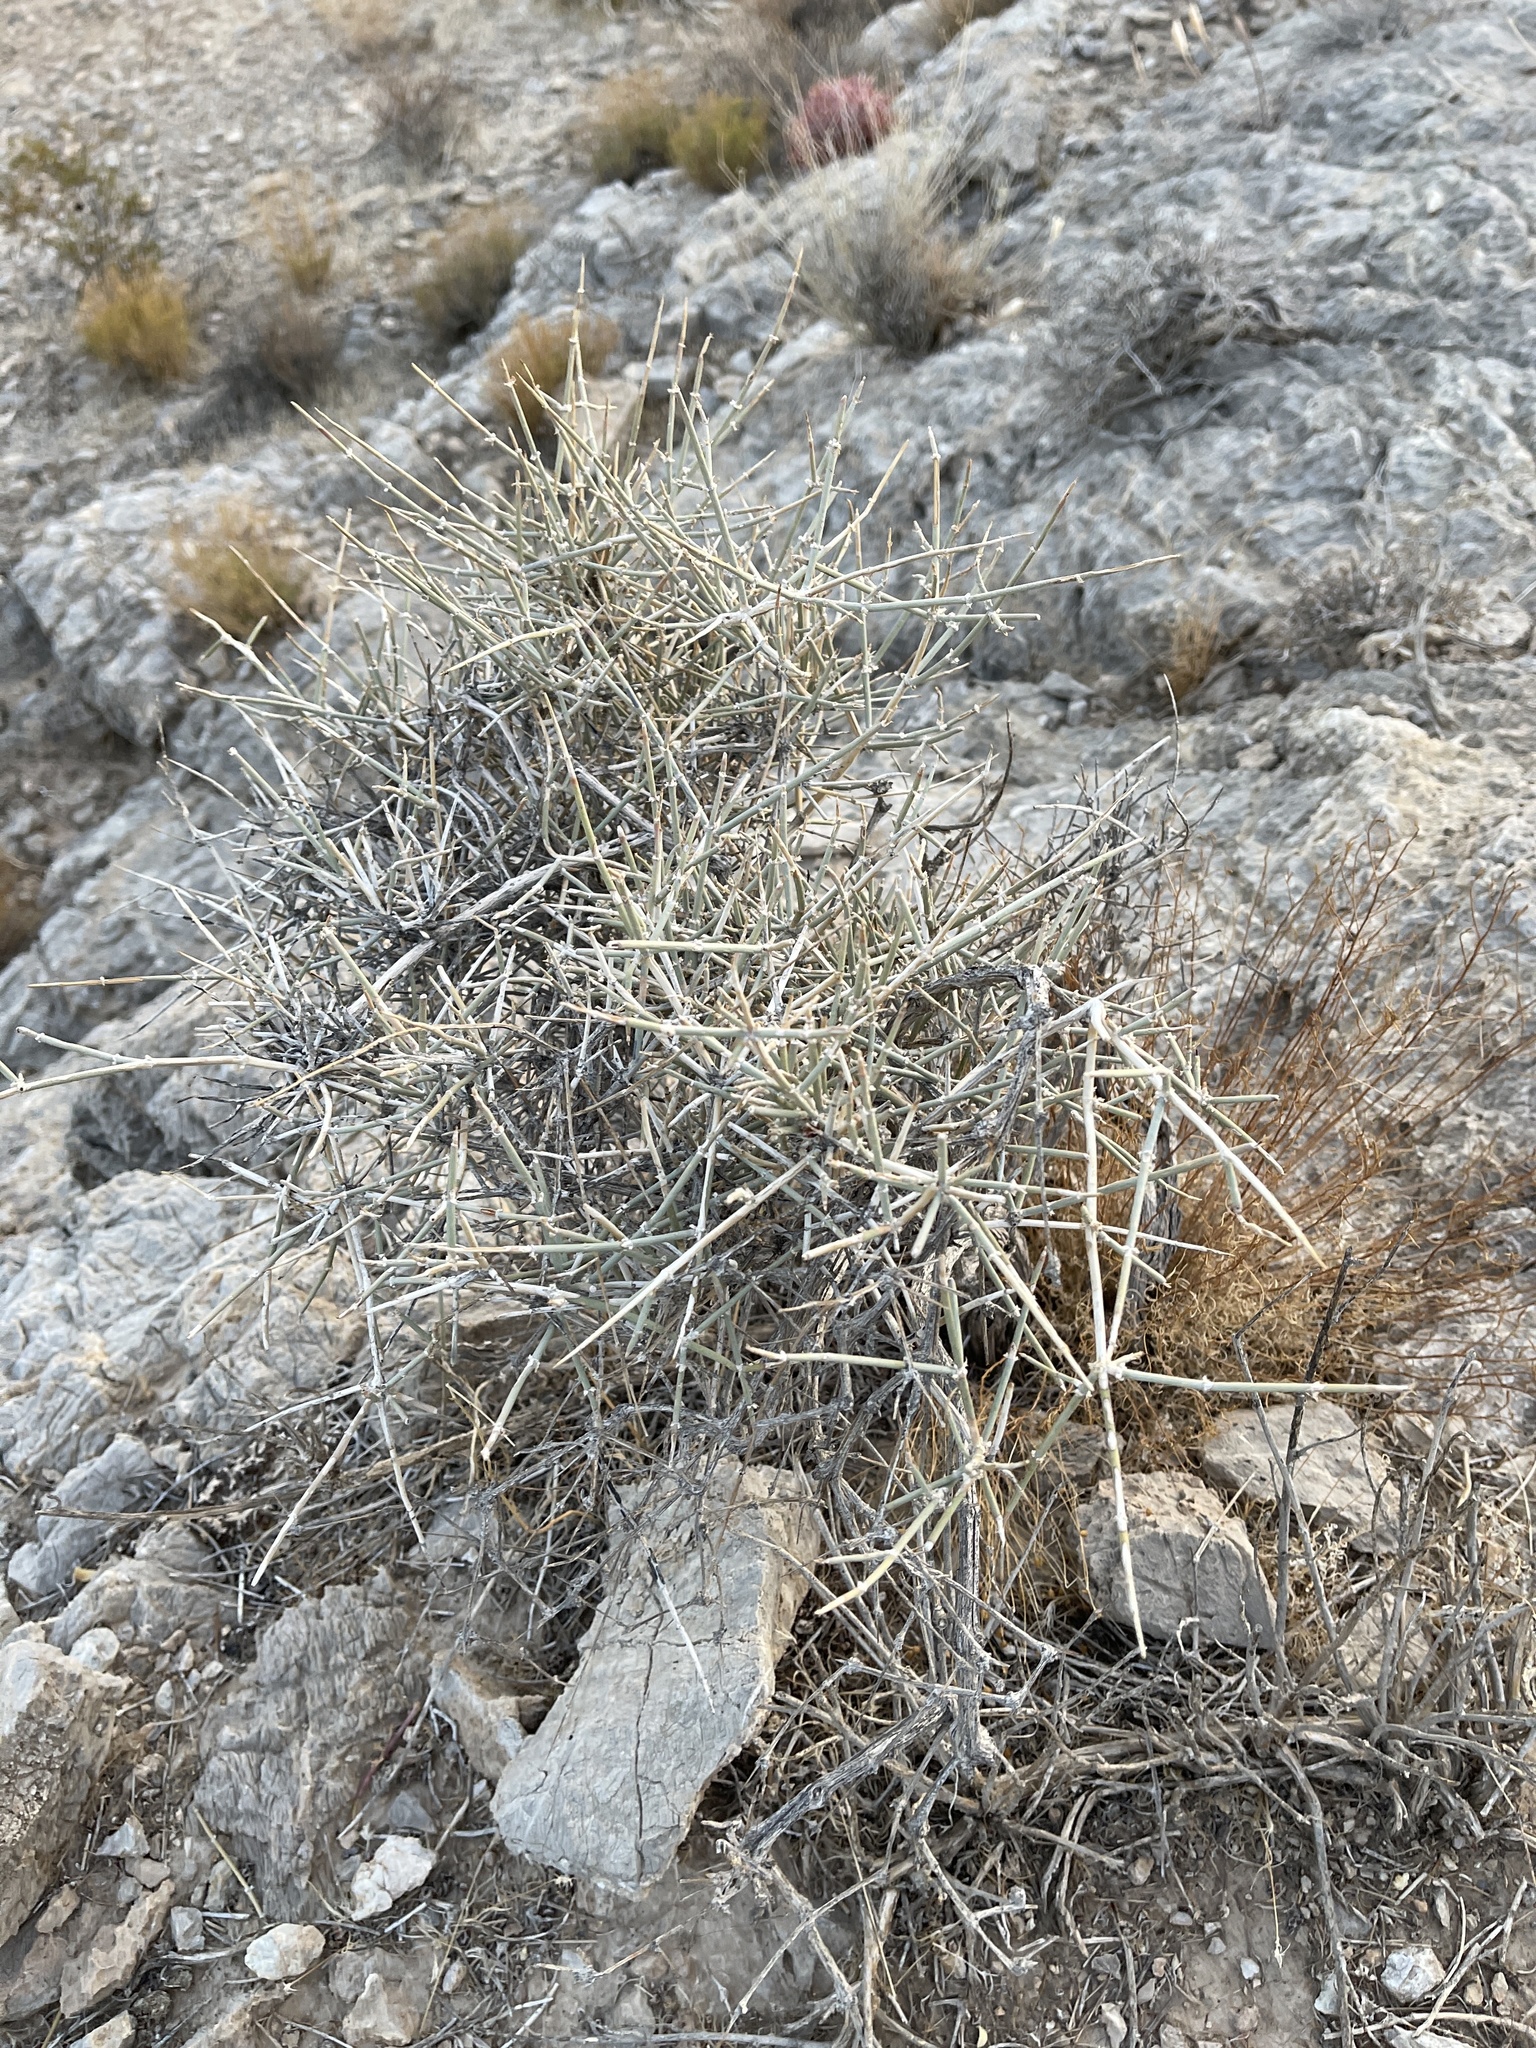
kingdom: Plantae
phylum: Tracheophyta
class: Gnetopsida
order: Ephedrales
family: Ephedraceae
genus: Ephedra
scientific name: Ephedra nevadensis
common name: Gray ephedra
